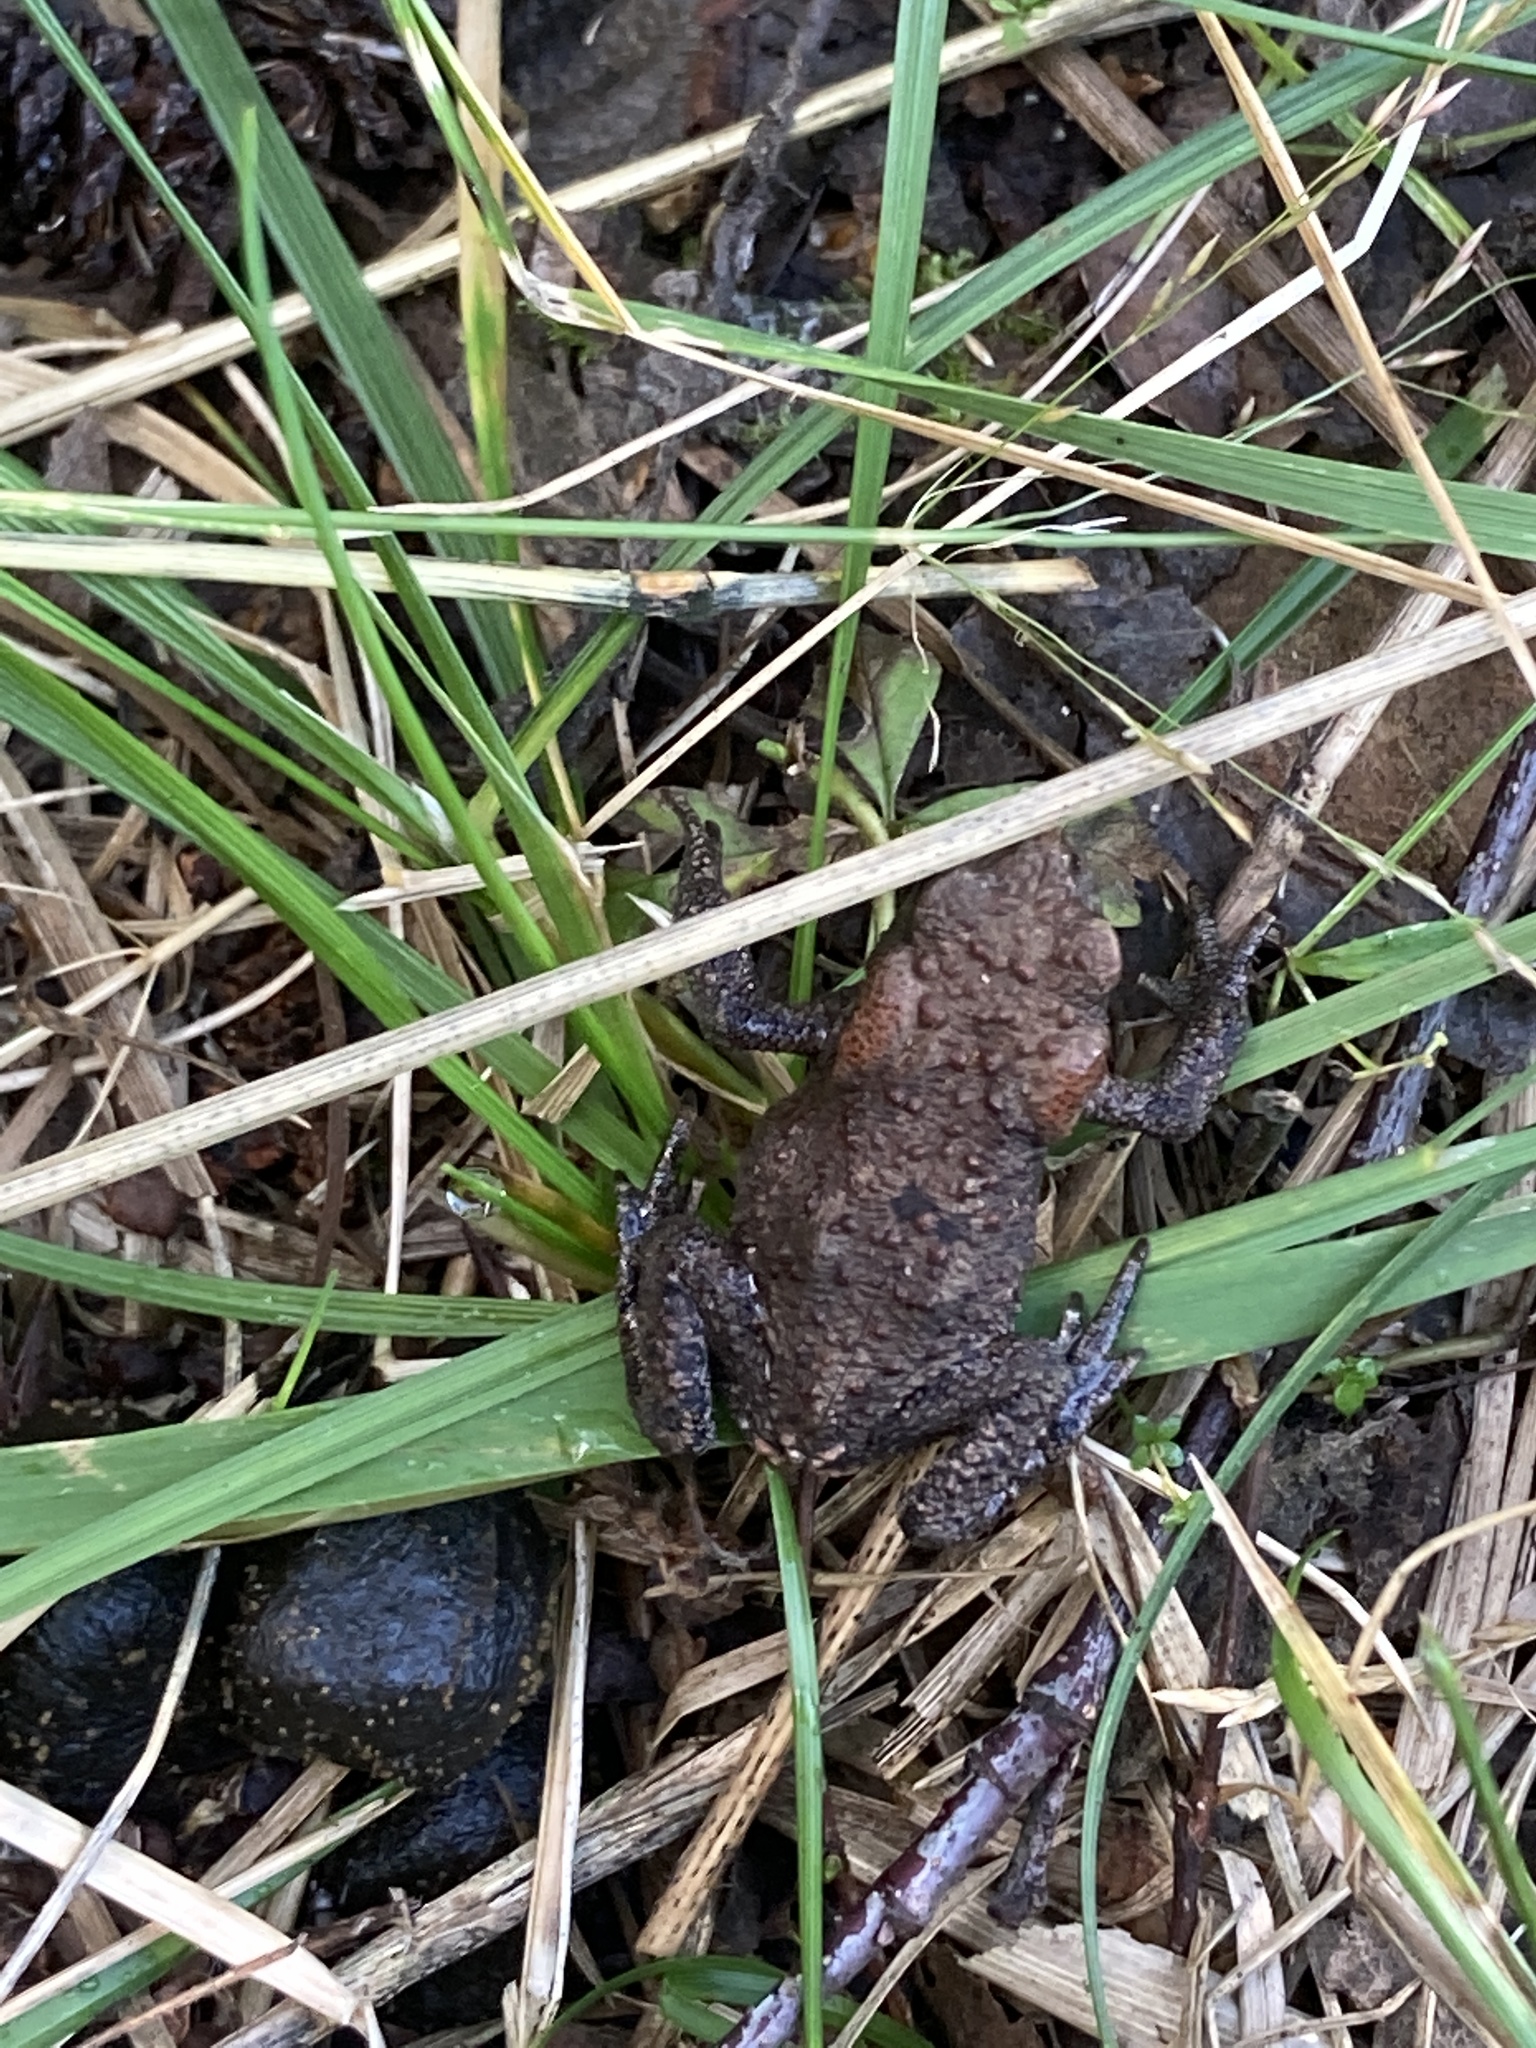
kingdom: Animalia
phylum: Chordata
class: Amphibia
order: Anura
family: Bufonidae
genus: Bufo
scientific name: Bufo bufo
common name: Common toad
